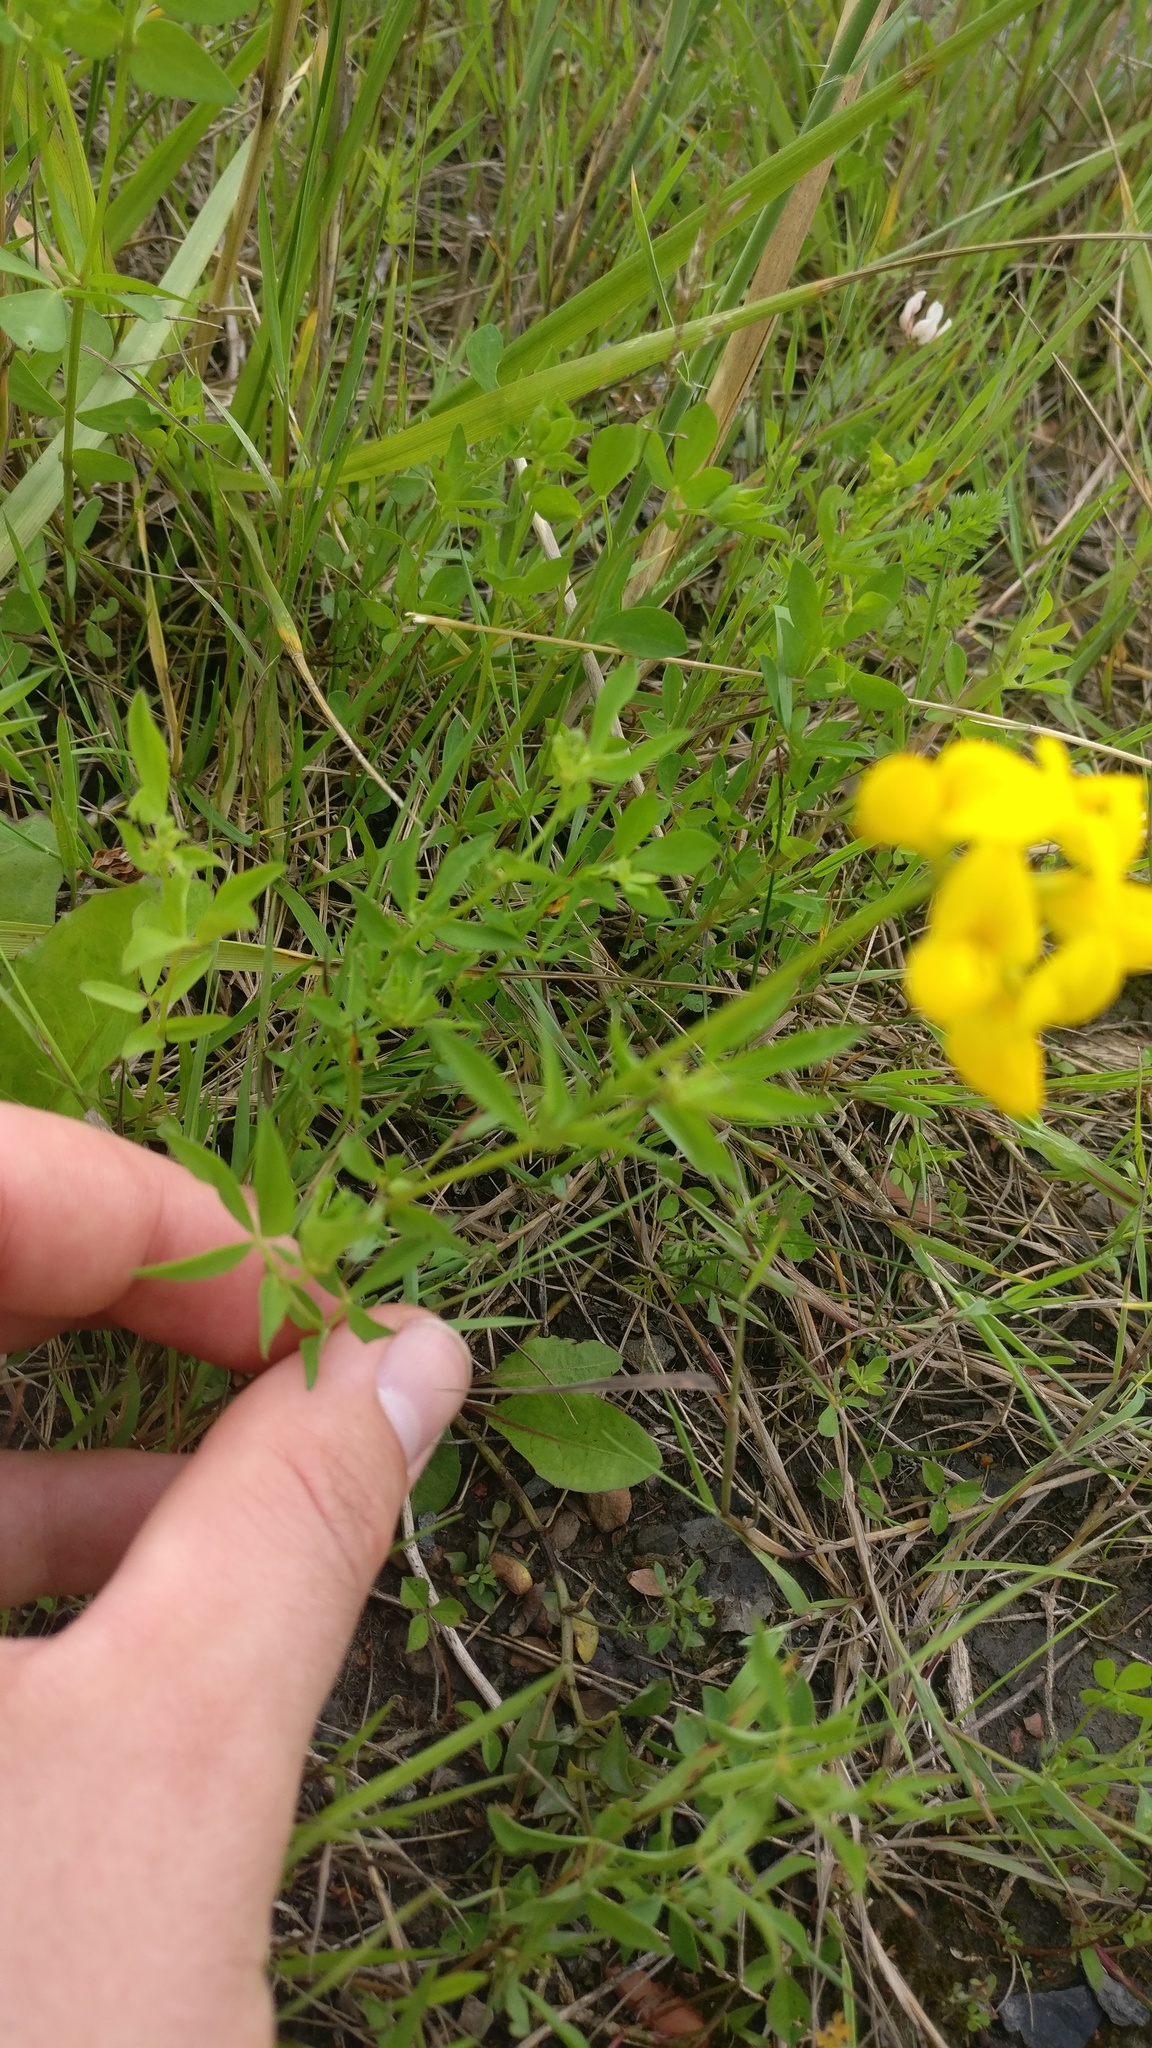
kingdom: Plantae
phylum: Tracheophyta
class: Magnoliopsida
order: Fabales
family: Fabaceae
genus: Lotus
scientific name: Lotus tenuis
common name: Narrow-leaved bird's-foot-trefoil
